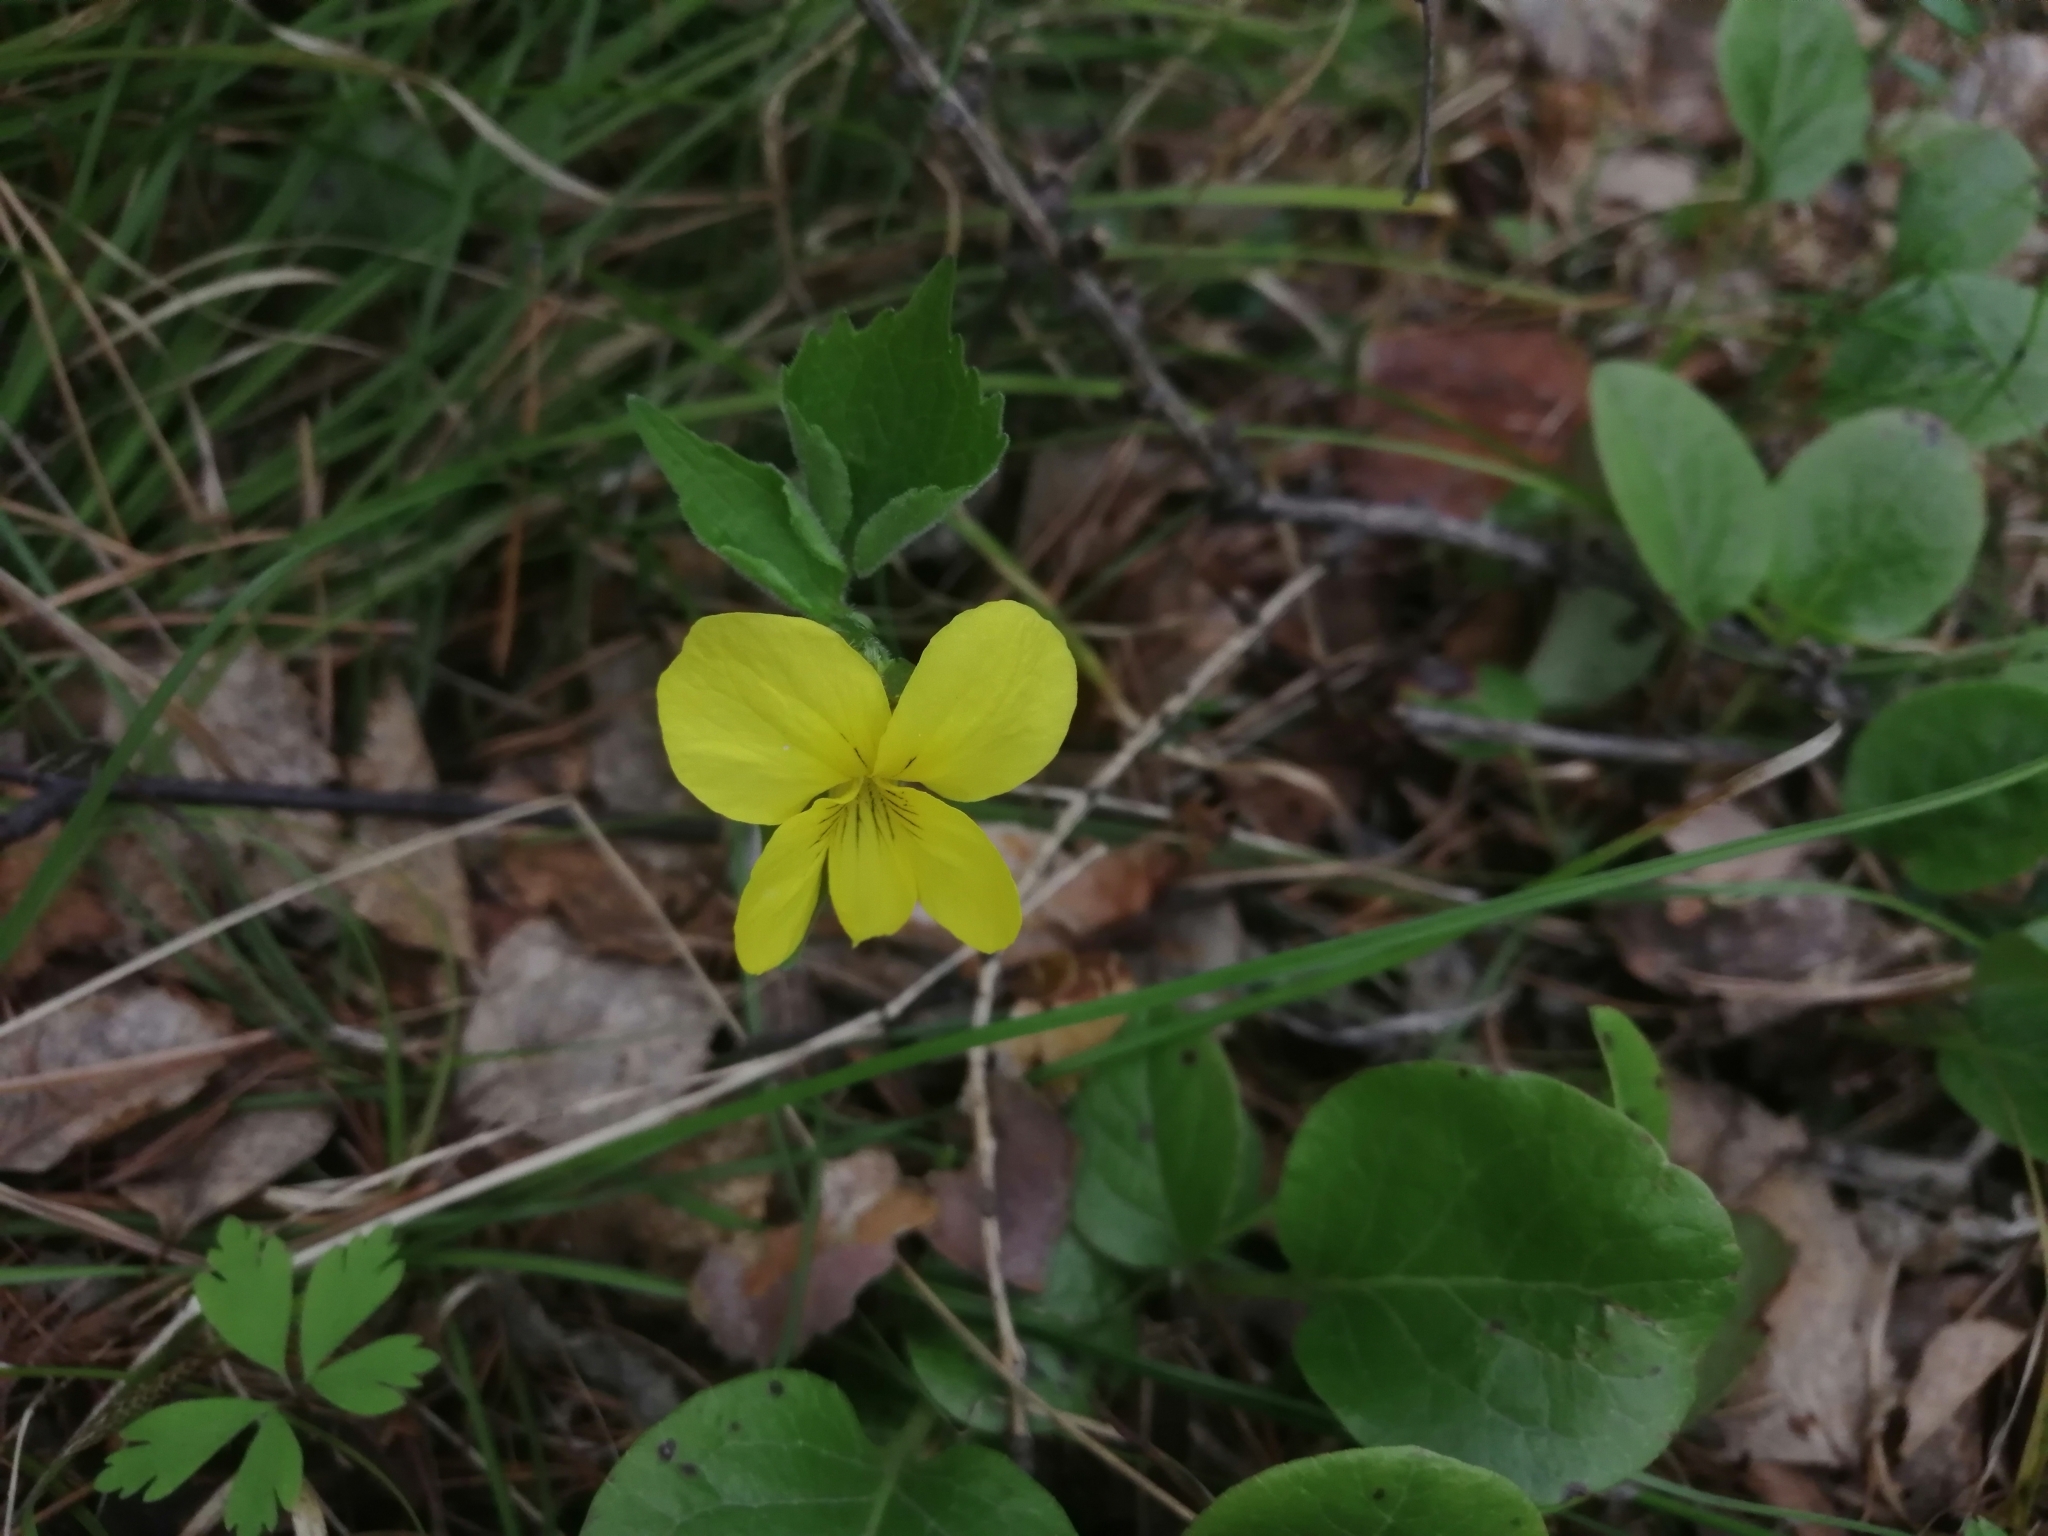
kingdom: Plantae
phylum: Tracheophyta
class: Magnoliopsida
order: Malpighiales
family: Violaceae
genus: Viola
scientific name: Viola uniflora
